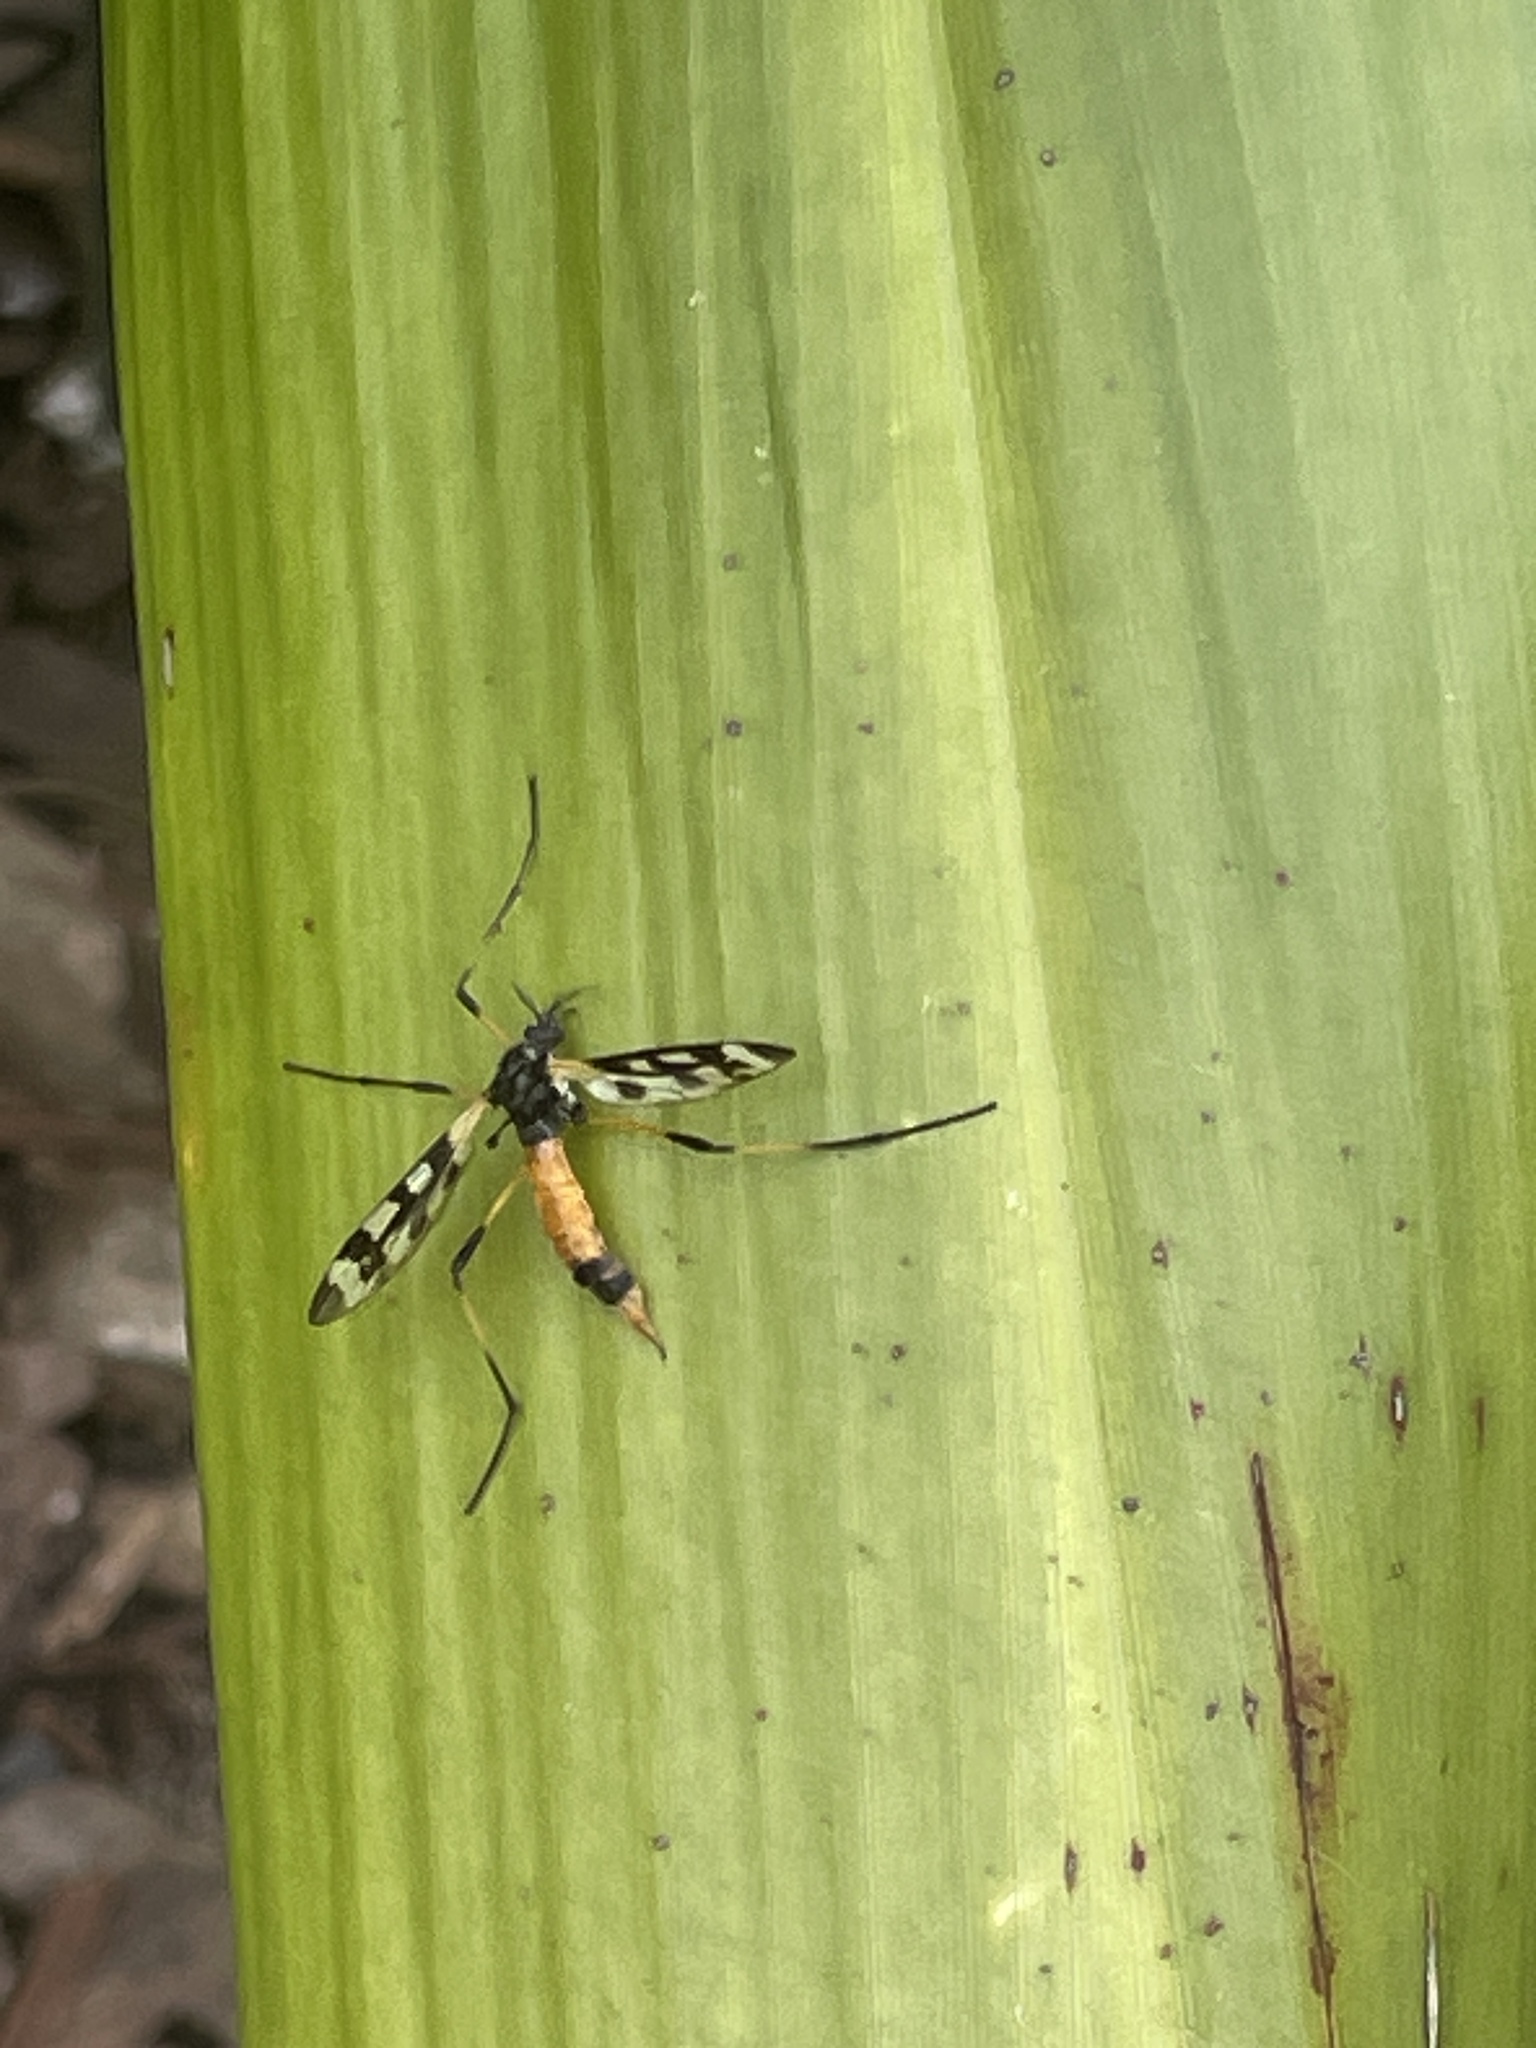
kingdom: Animalia
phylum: Arthropoda
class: Insecta
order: Diptera
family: Limoniidae
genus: Gynoplistia
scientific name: Gynoplistia bella
